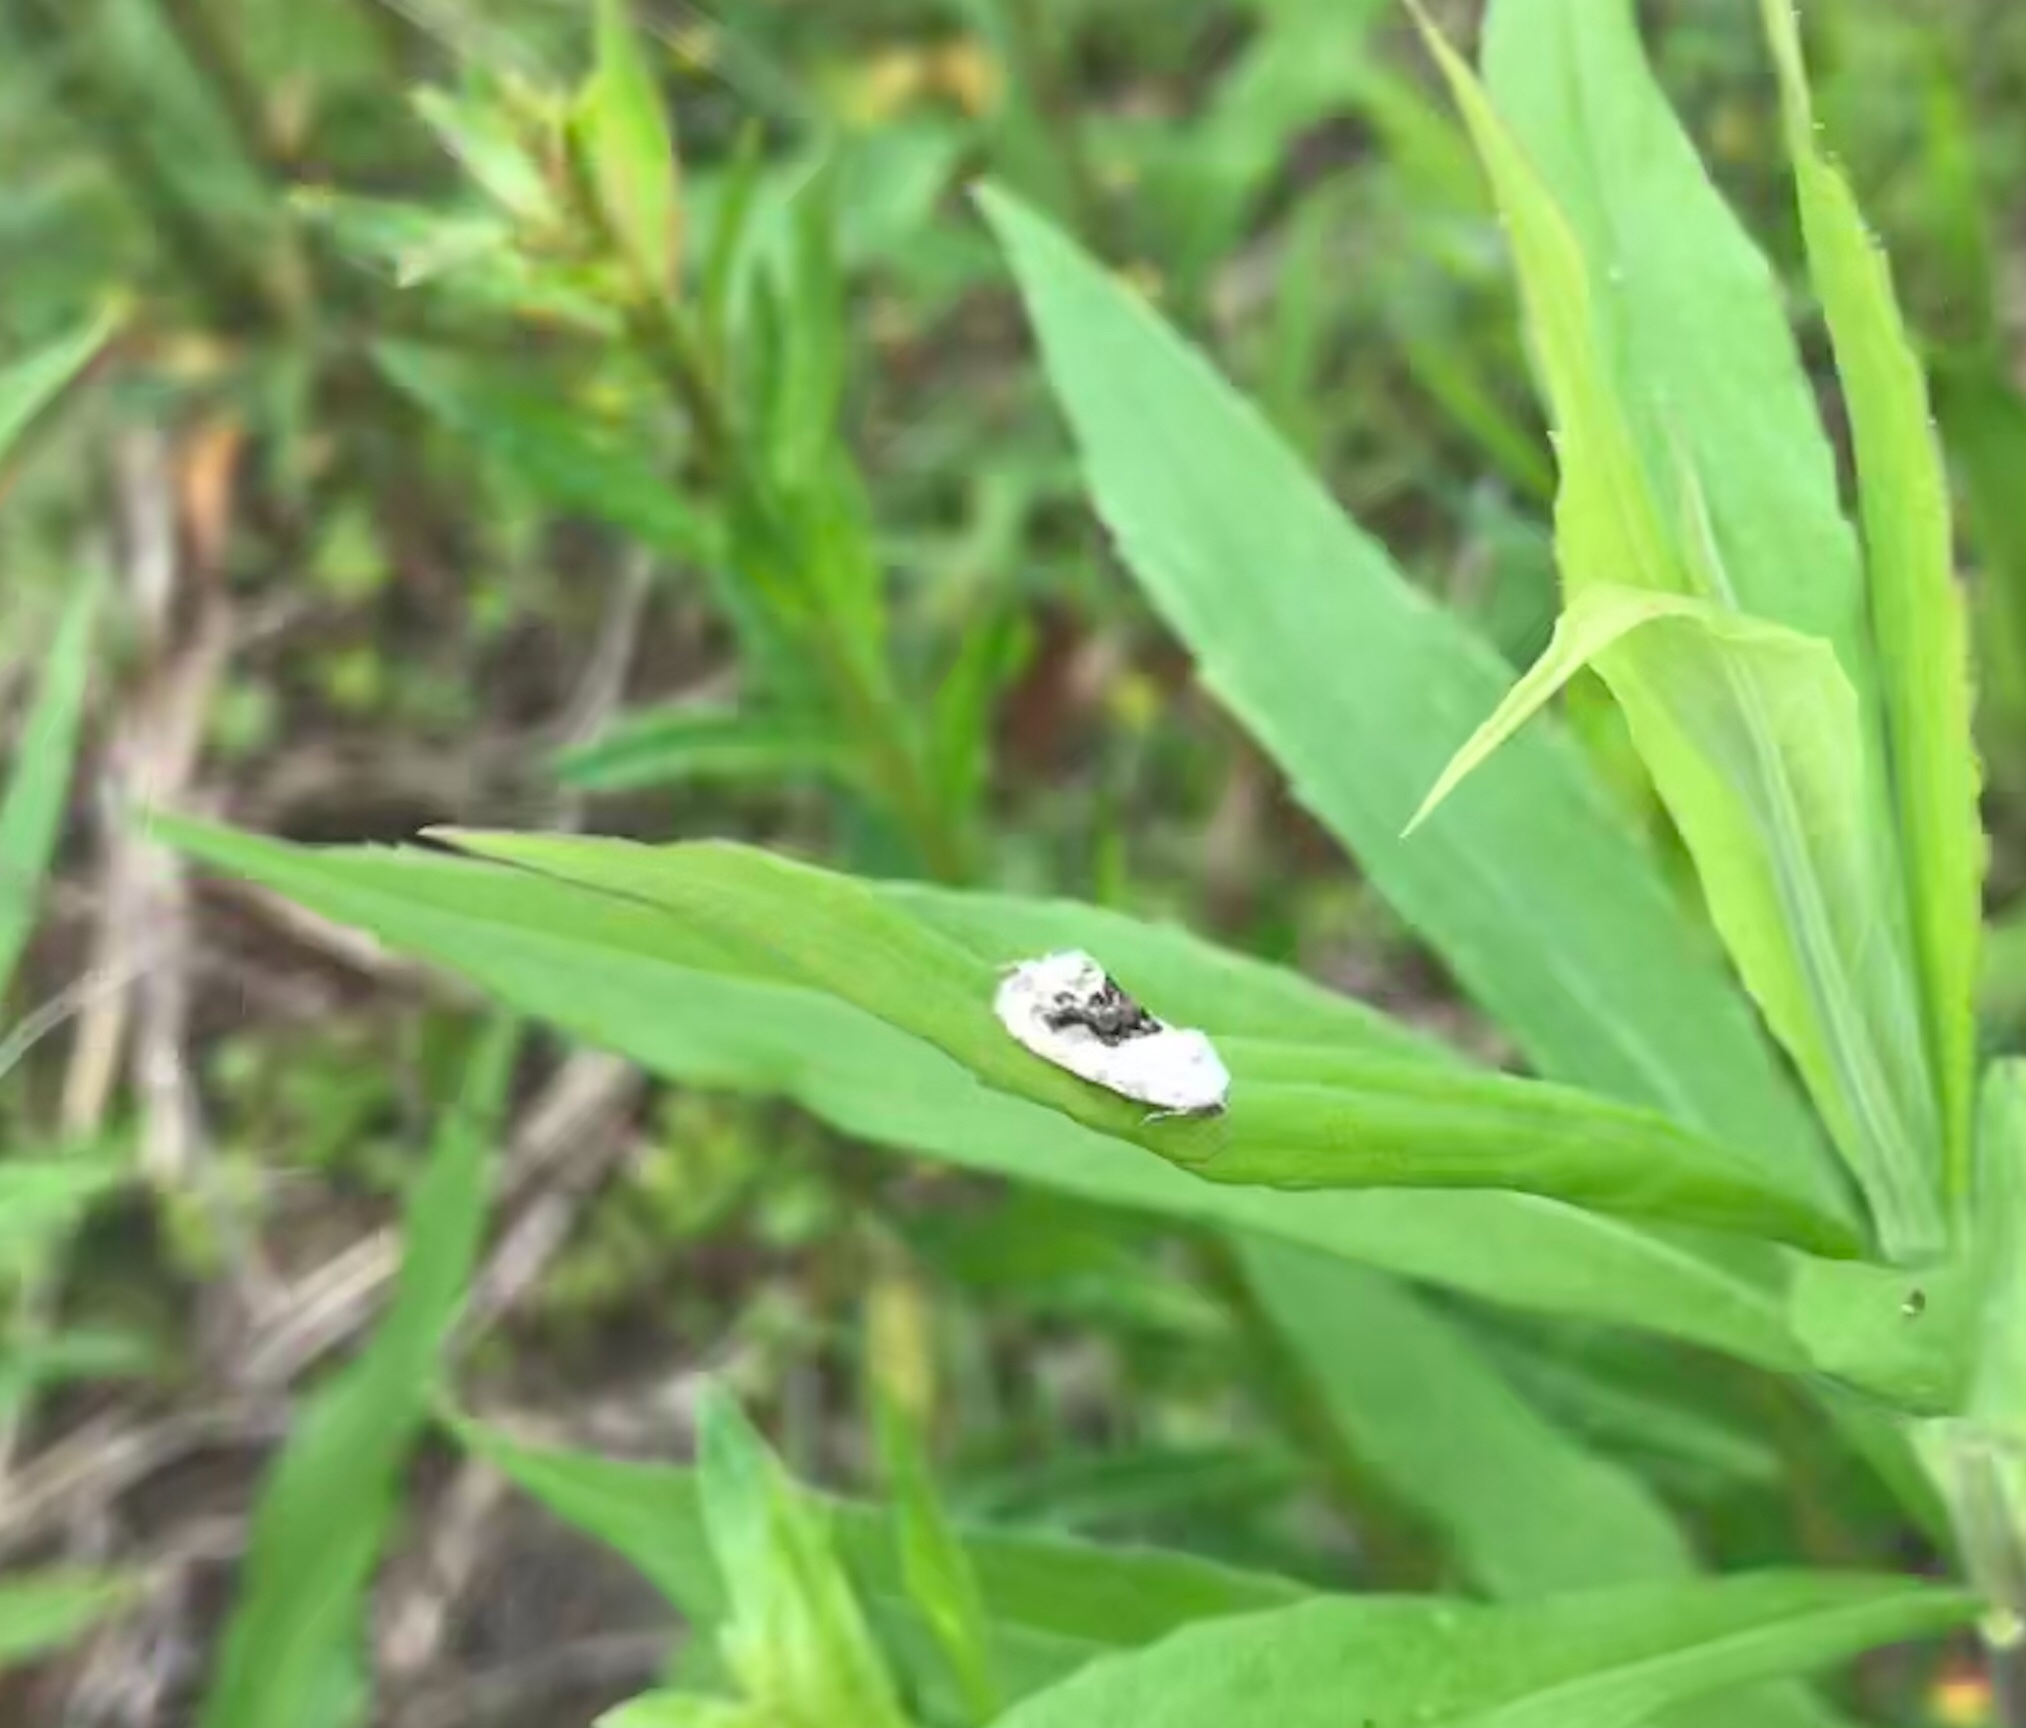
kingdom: Animalia
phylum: Arthropoda
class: Insecta
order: Lepidoptera
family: Noctuidae
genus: Acontia
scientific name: Acontia erastrioides
